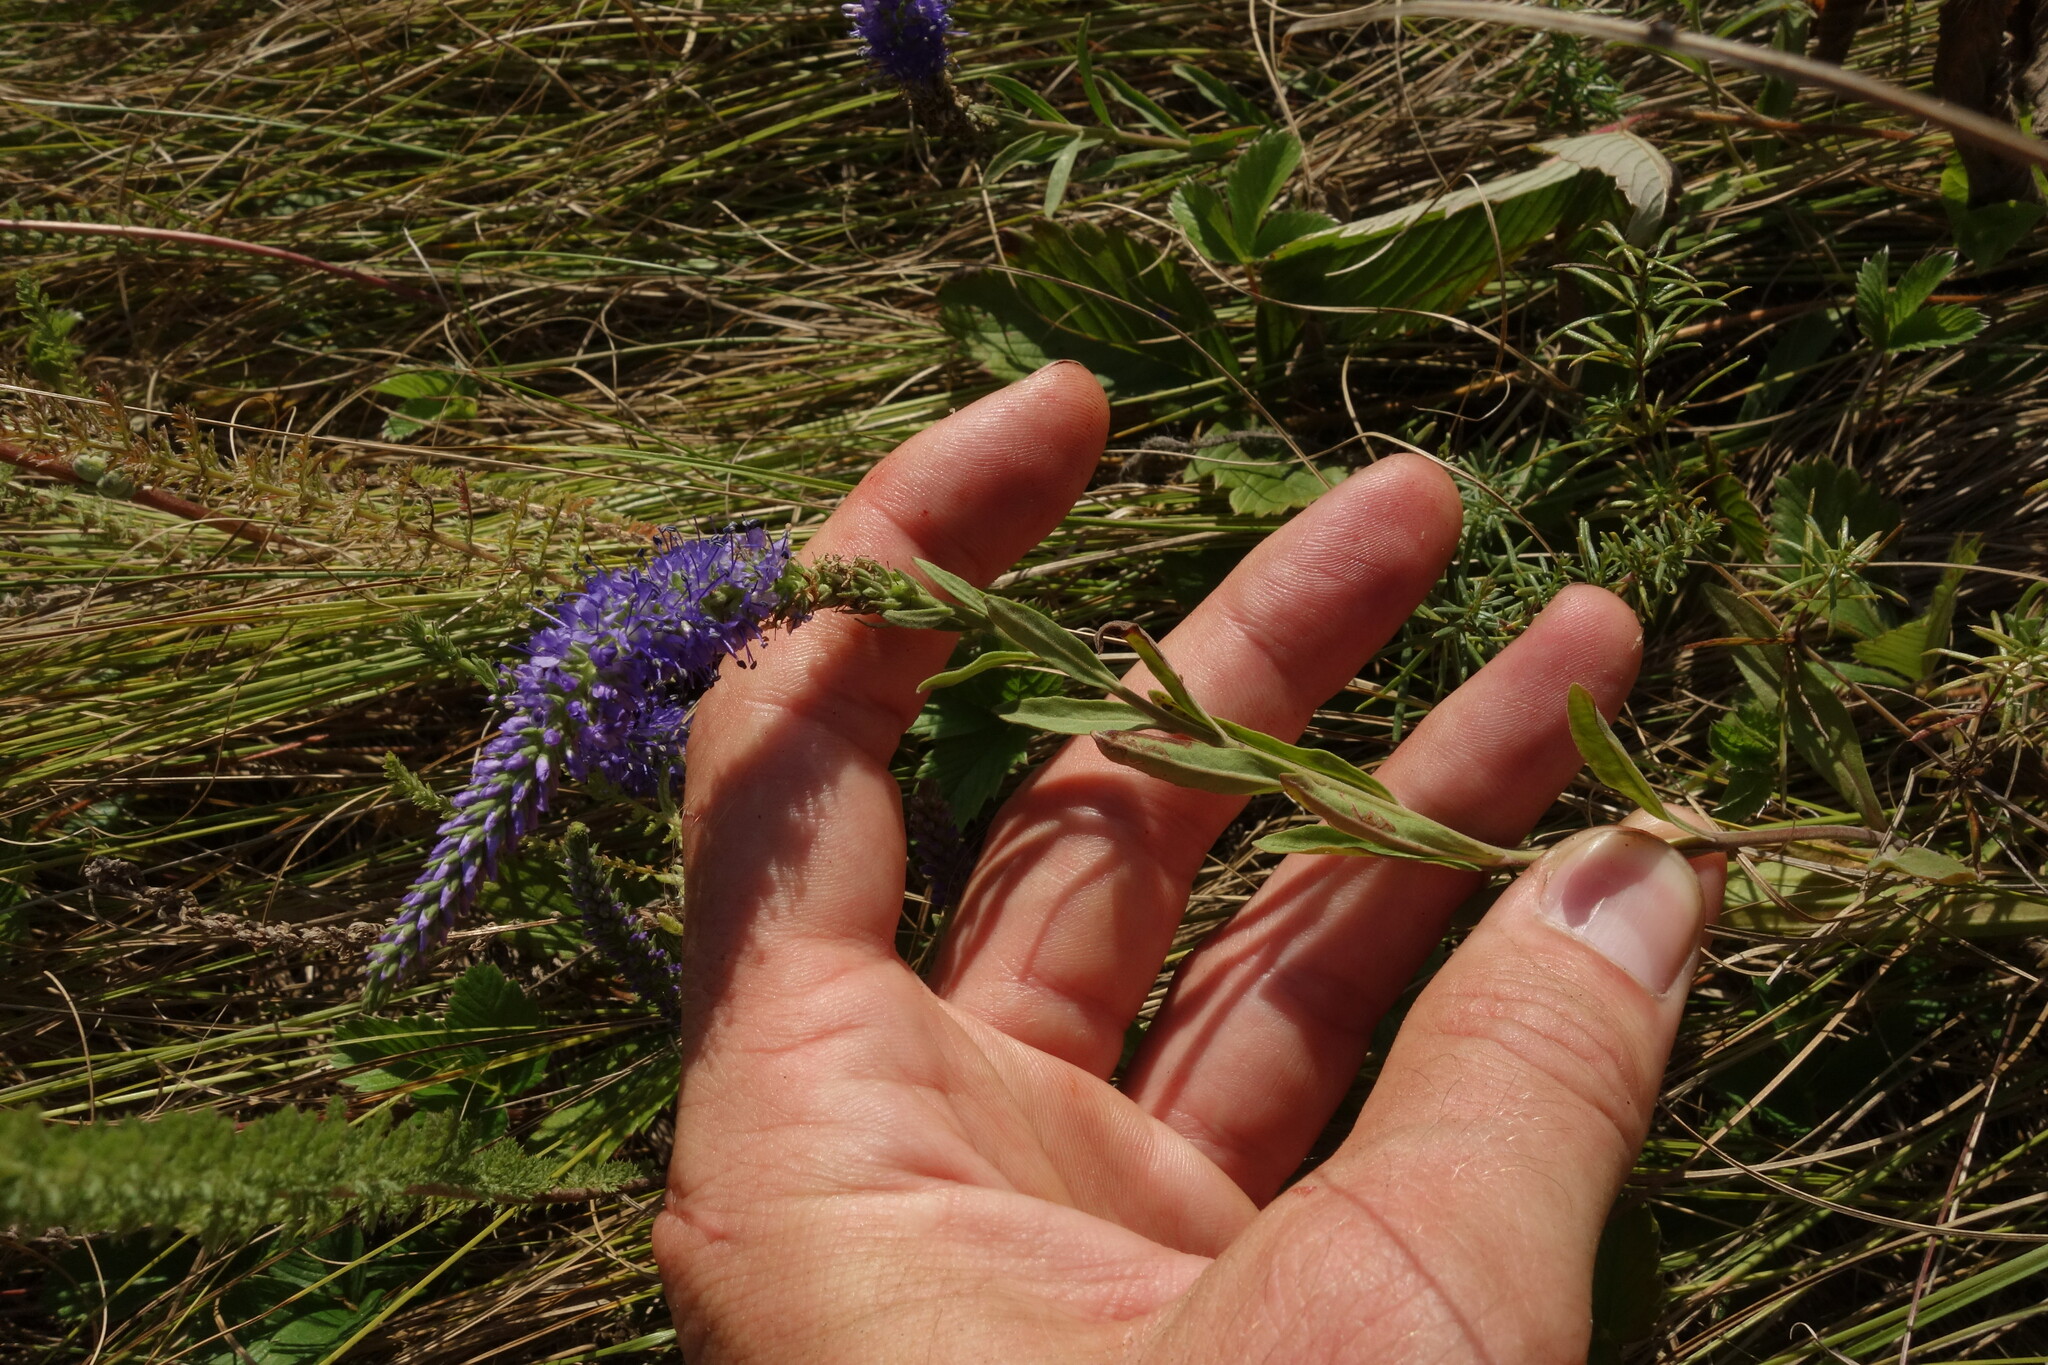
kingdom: Plantae
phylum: Tracheophyta
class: Magnoliopsida
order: Lamiales
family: Plantaginaceae
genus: Veronica
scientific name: Veronica spicata
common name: Spiked speedwell
